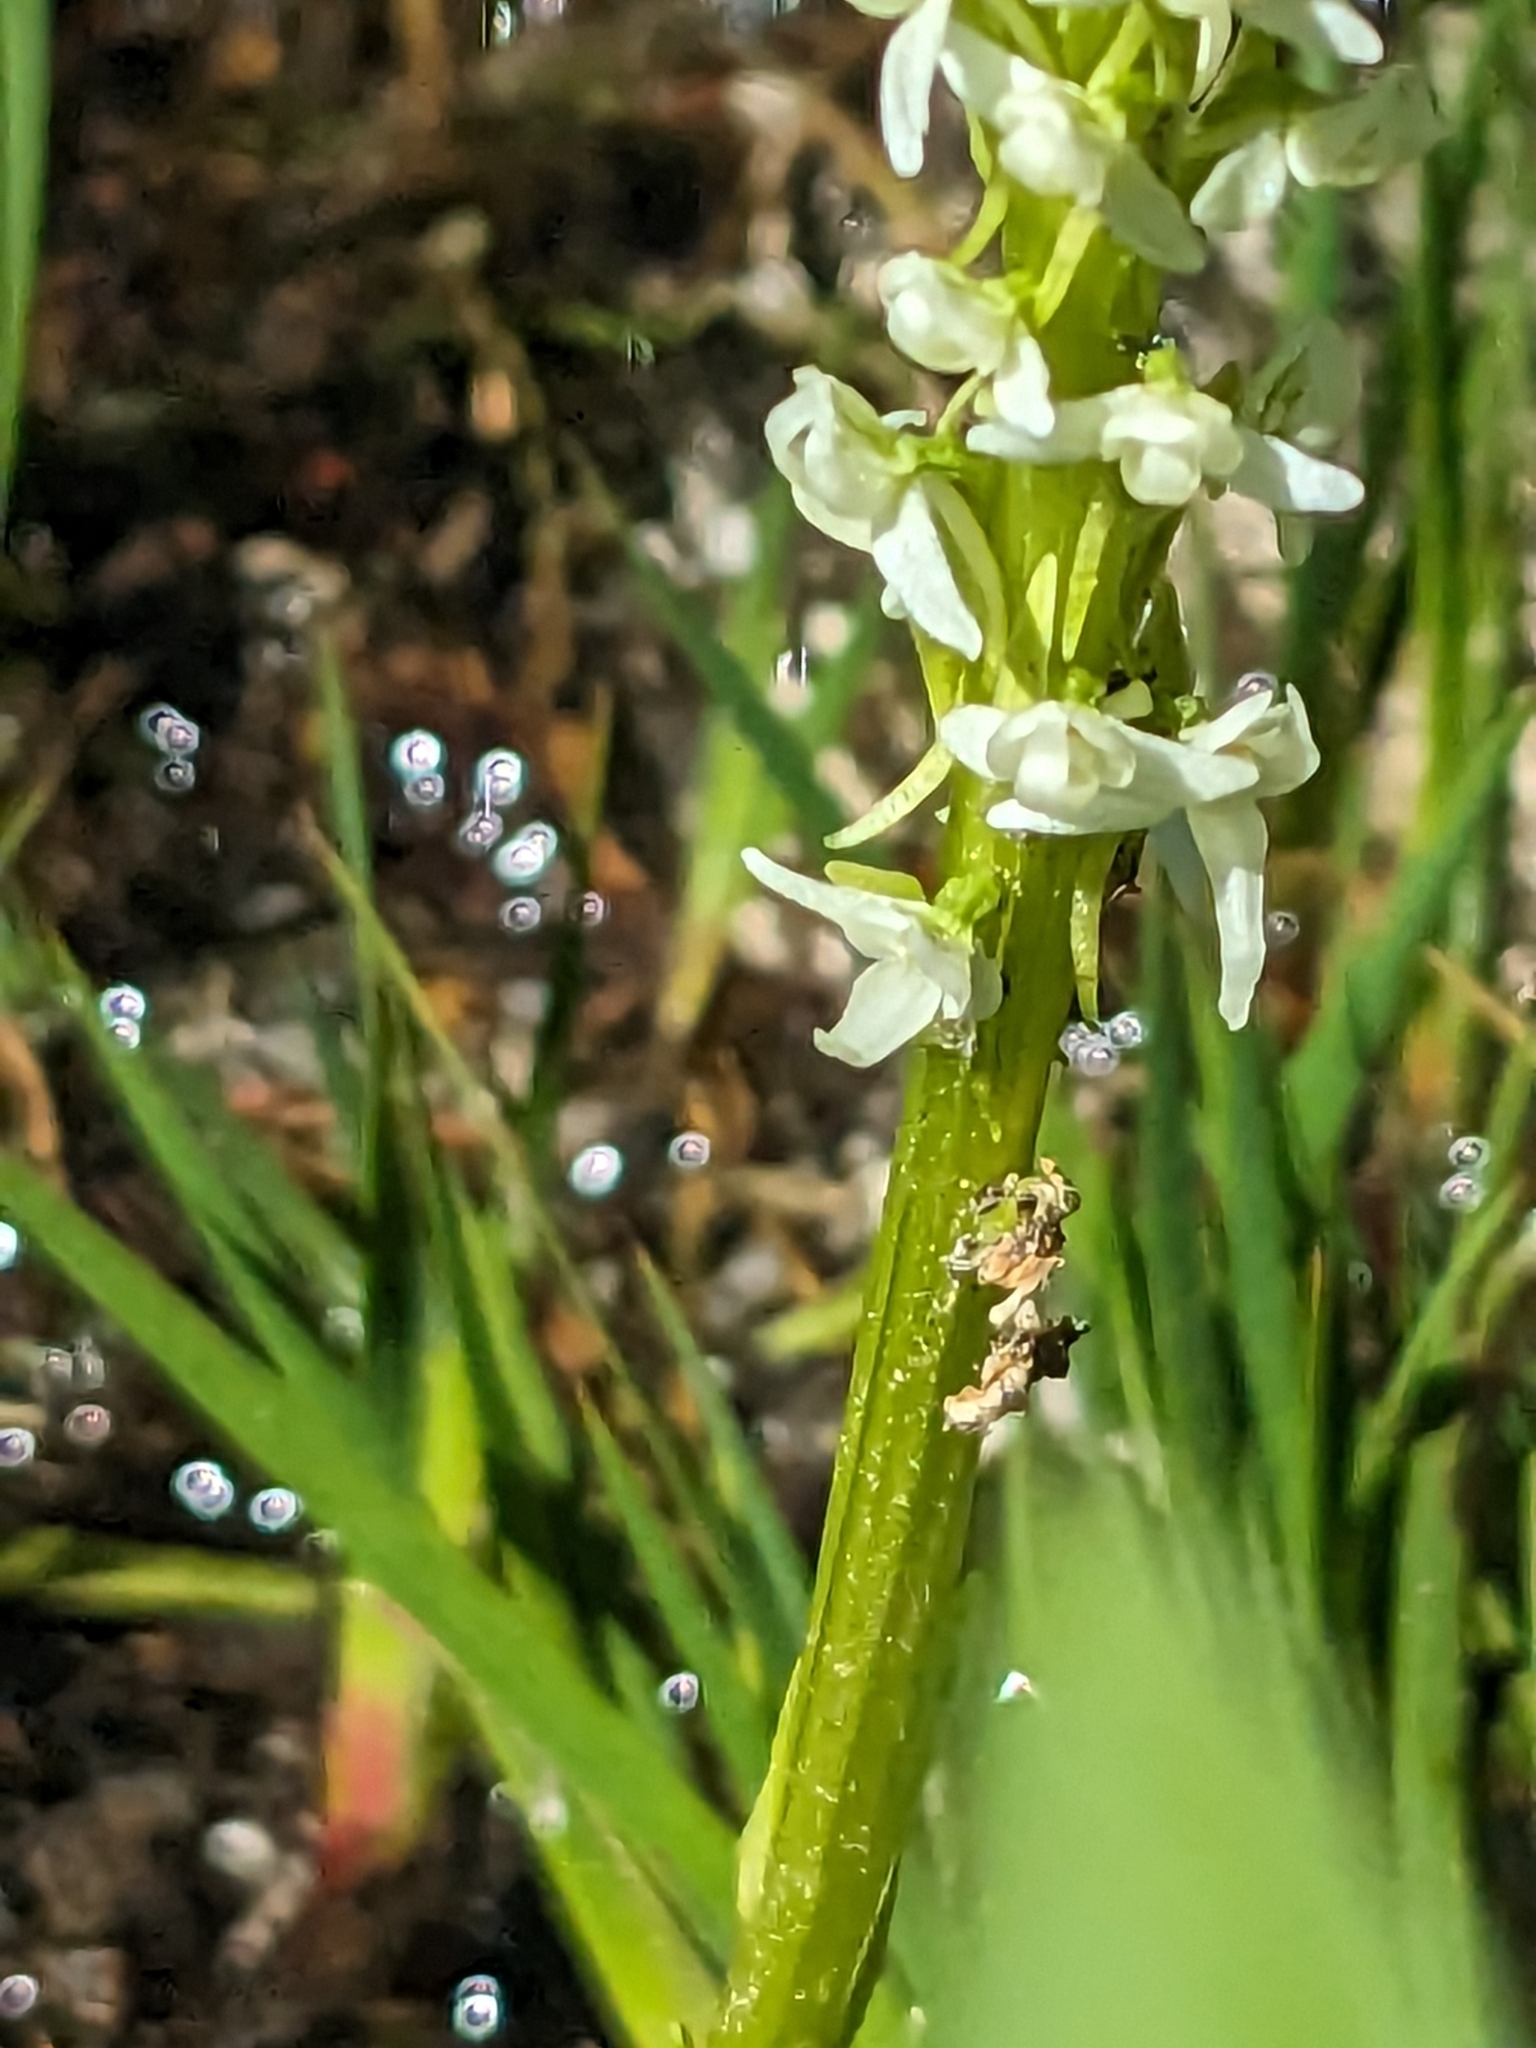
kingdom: Plantae
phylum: Tracheophyta
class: Liliopsida
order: Asparagales
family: Orchidaceae
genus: Platanthera
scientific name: Platanthera dilatata
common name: Bog candles
